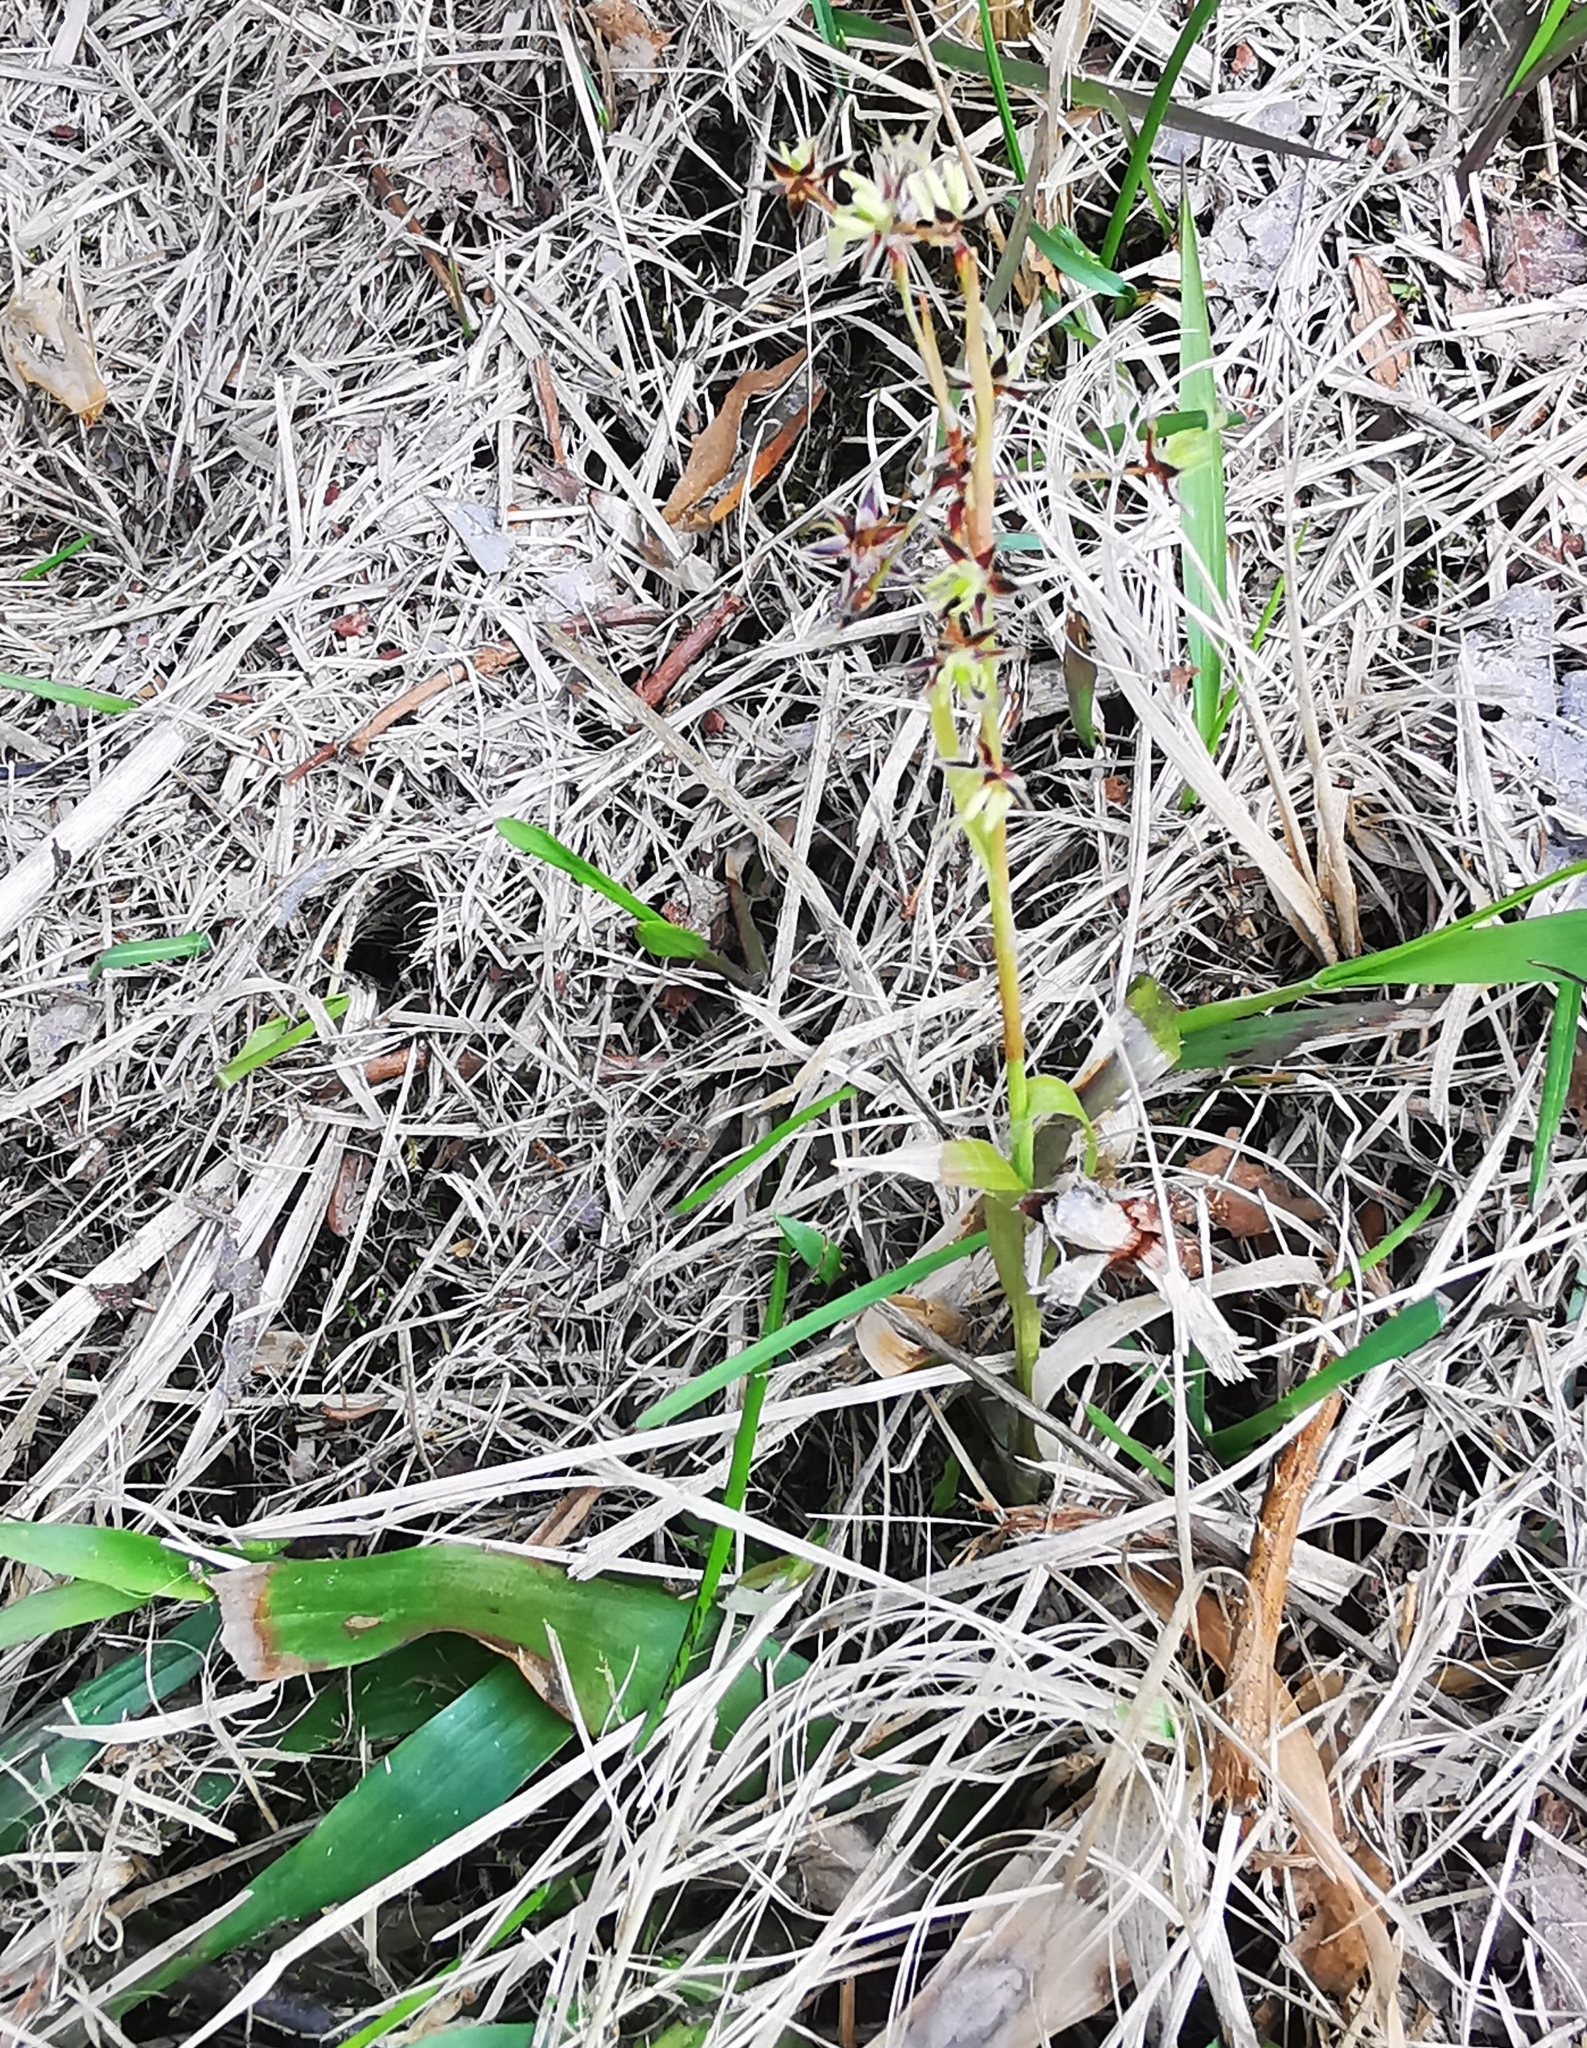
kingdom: Plantae
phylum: Tracheophyta
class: Liliopsida
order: Poales
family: Juncaceae
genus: Luzula
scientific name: Luzula pilosa
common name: Hairy wood-rush
